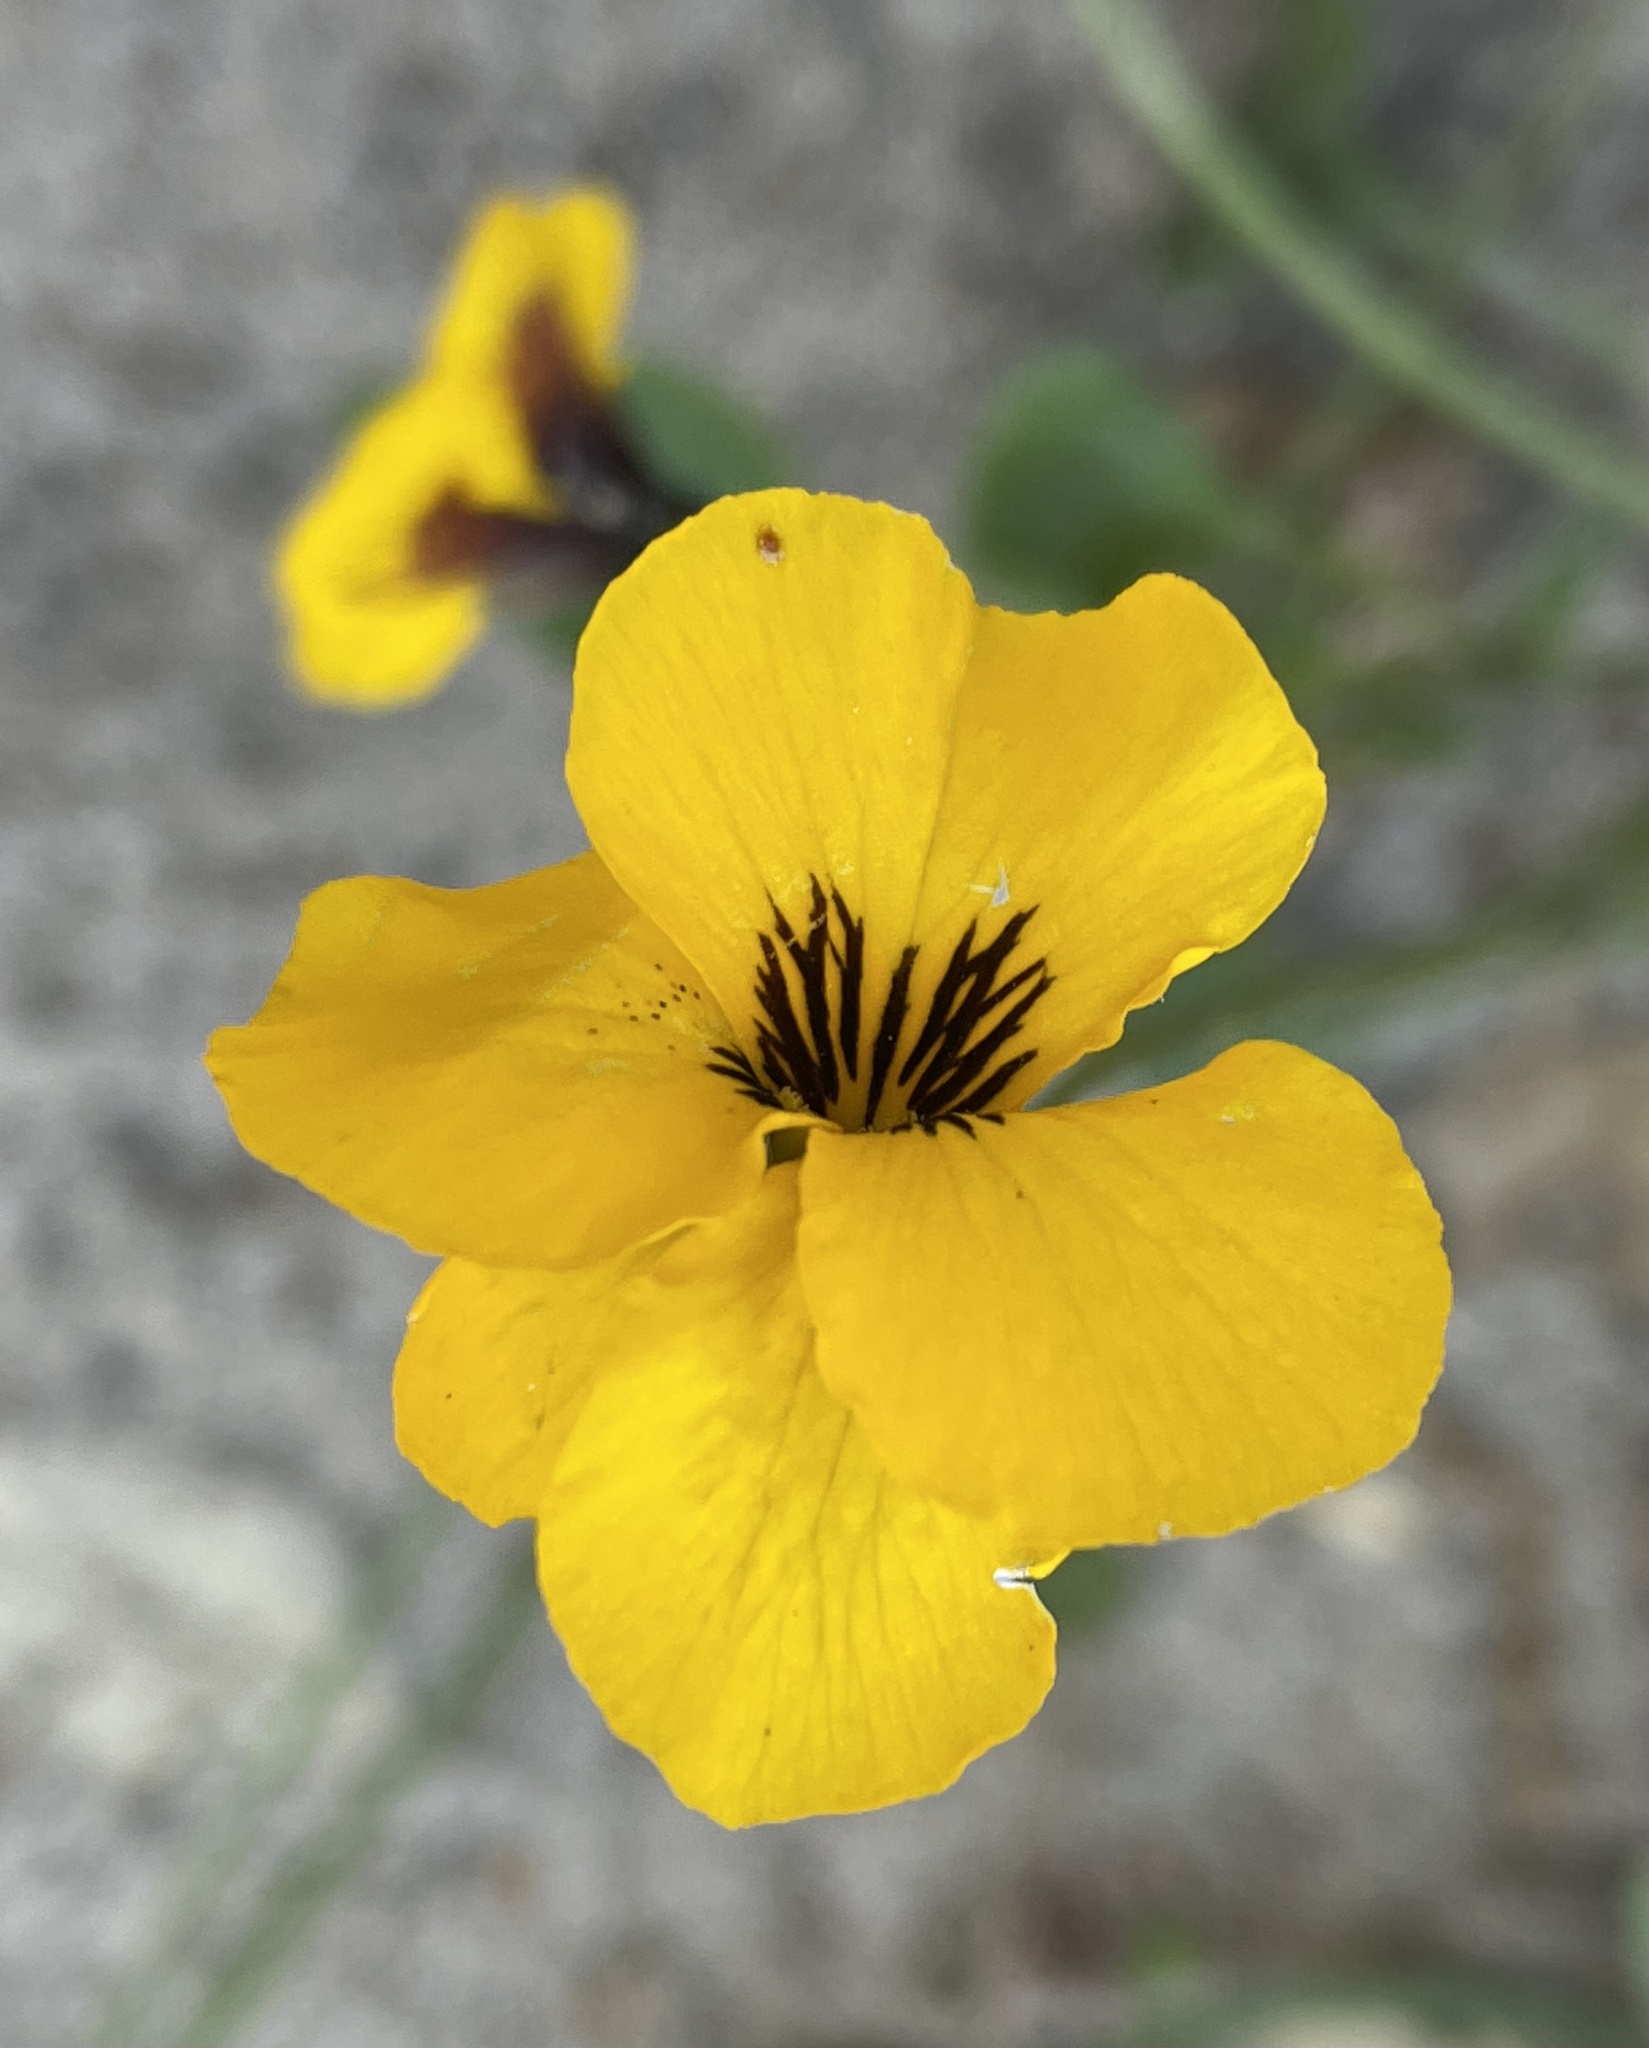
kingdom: Plantae
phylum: Tracheophyta
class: Magnoliopsida
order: Malpighiales
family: Violaceae
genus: Viola
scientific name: Viola pedunculata
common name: California golden violet
